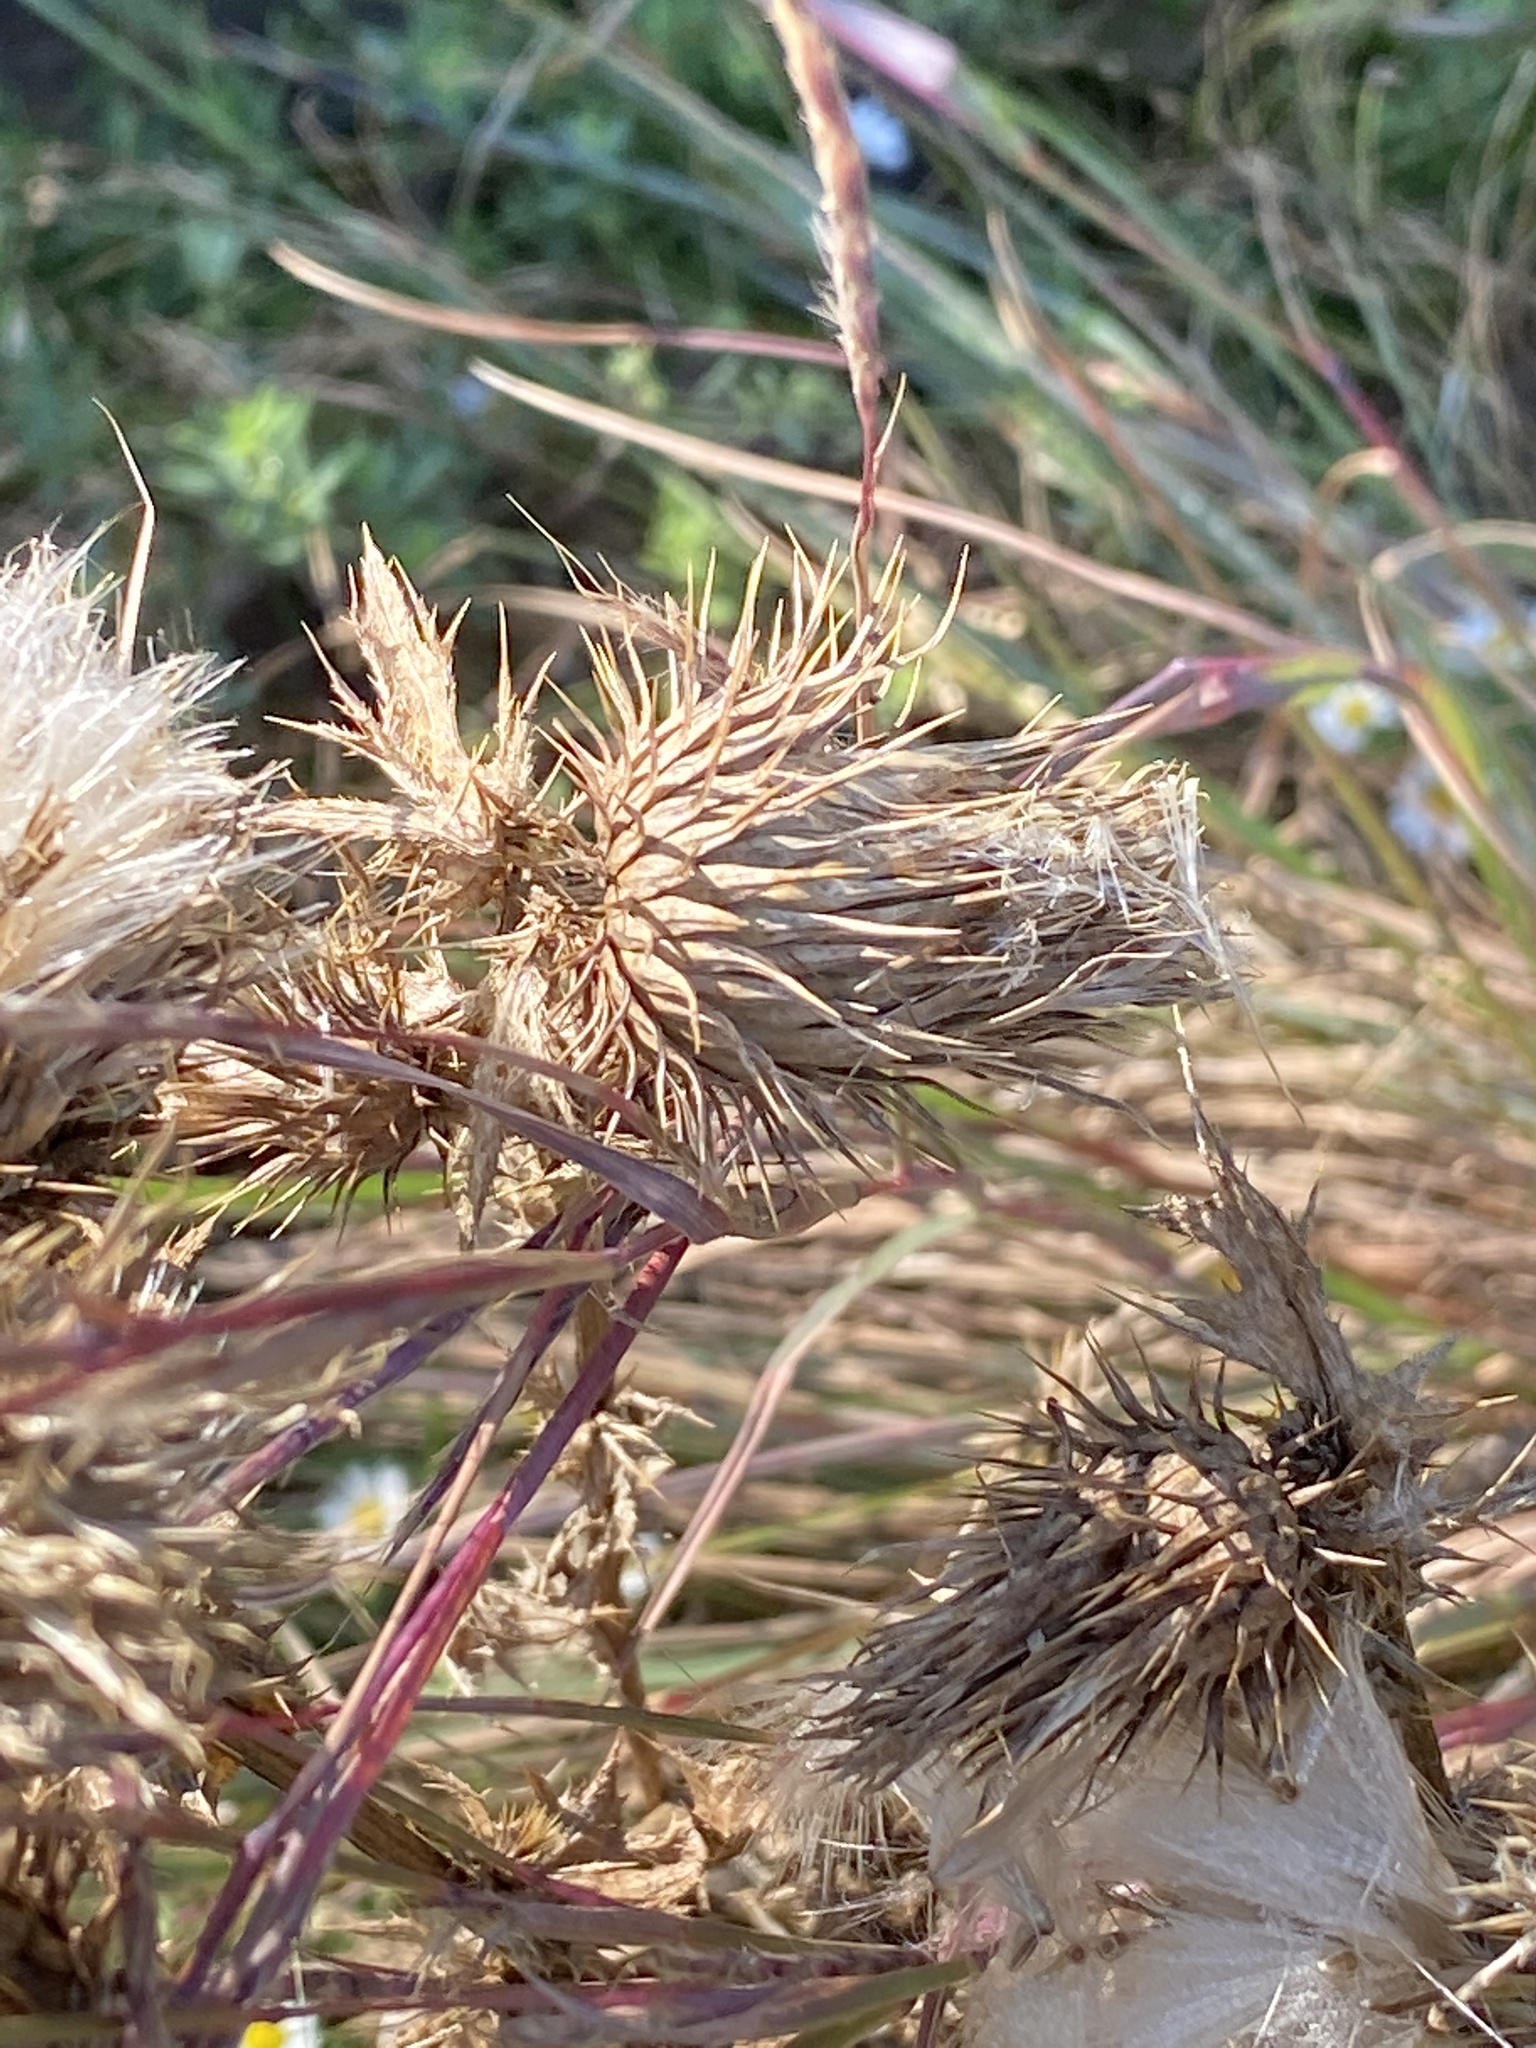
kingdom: Plantae
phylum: Tracheophyta
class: Magnoliopsida
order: Asterales
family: Asteraceae
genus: Cirsium
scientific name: Cirsium vulgare
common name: Bull thistle
